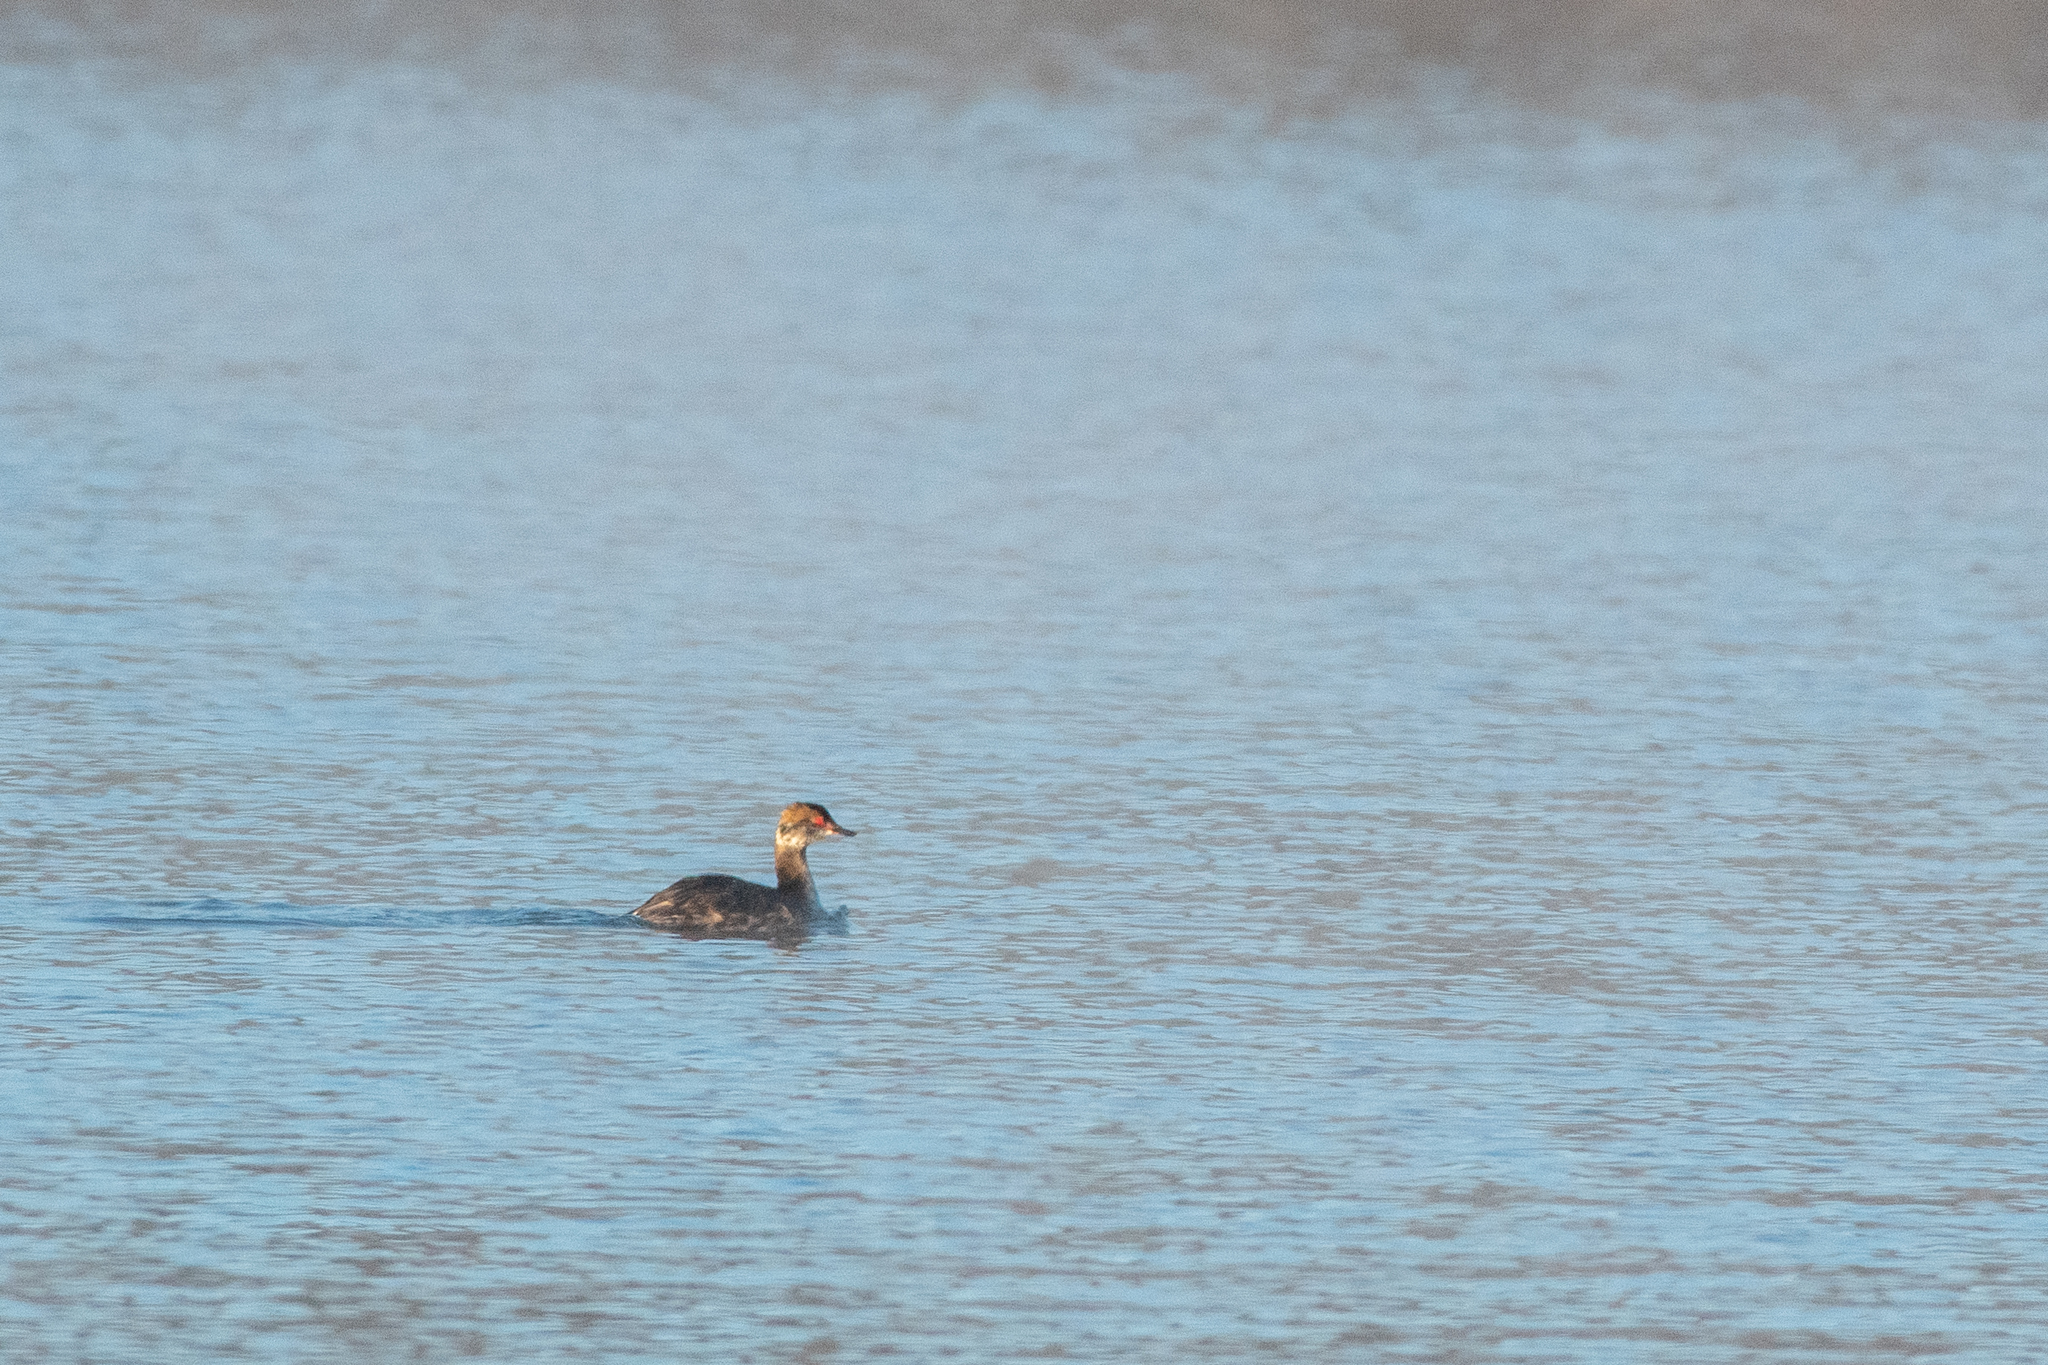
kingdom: Animalia
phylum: Chordata
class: Aves
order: Podicipediformes
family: Podicipedidae
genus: Podiceps
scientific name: Podiceps auritus
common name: Horned grebe
